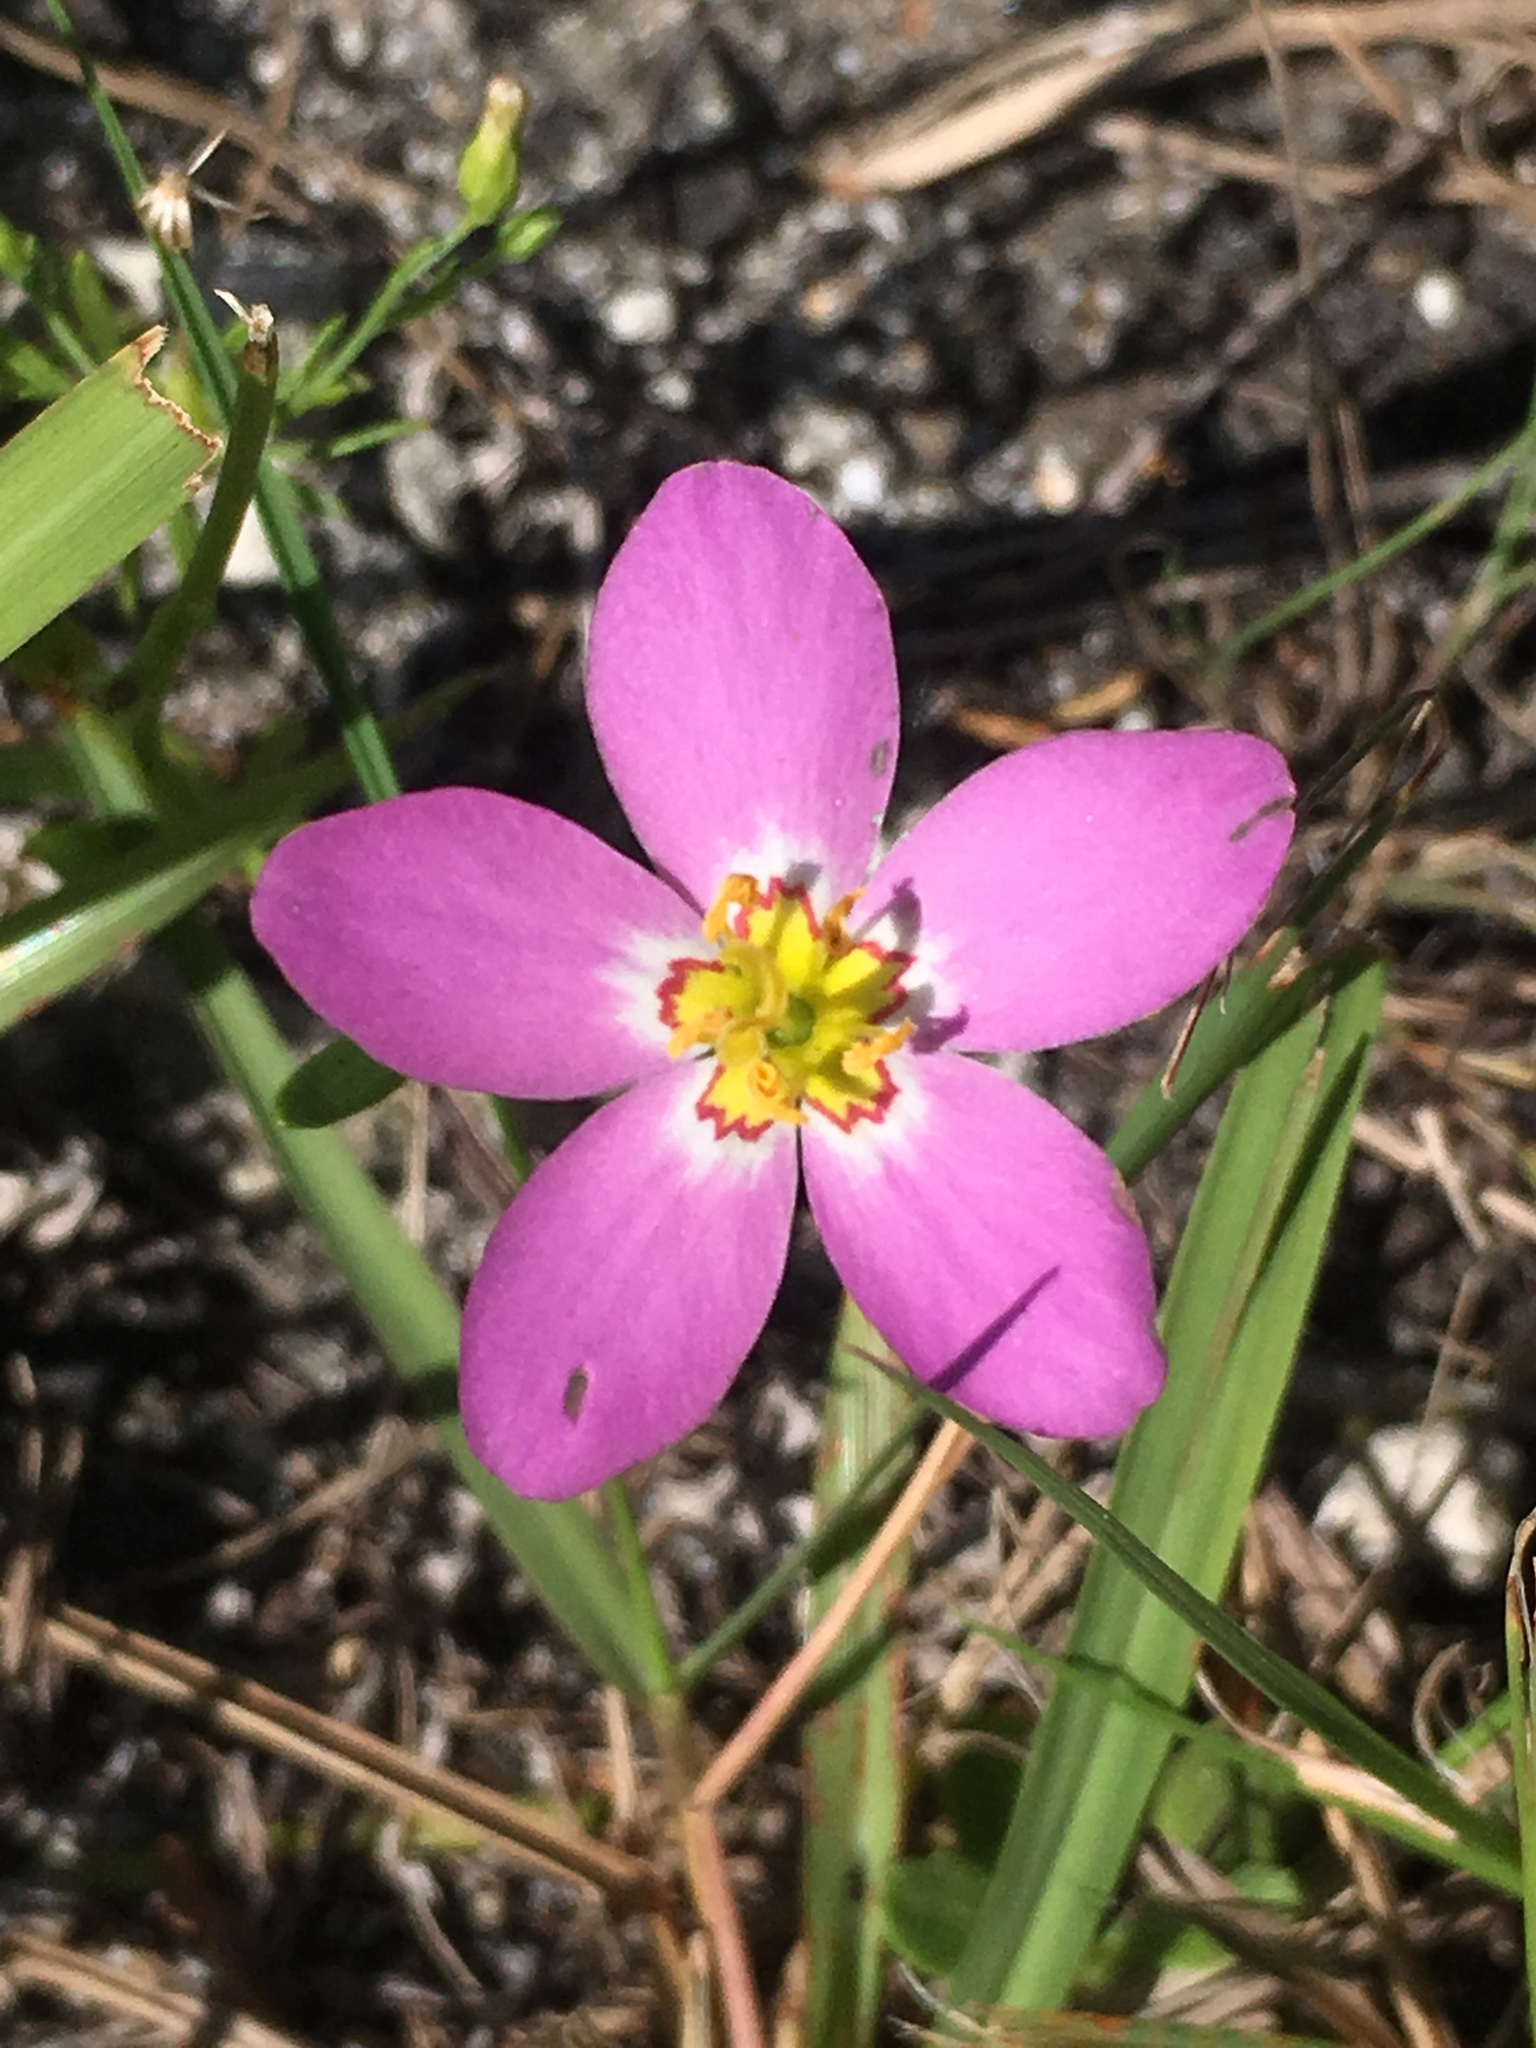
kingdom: Plantae
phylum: Tracheophyta
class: Magnoliopsida
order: Gentianales
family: Gentianaceae
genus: Sabatia
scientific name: Sabatia stellaris
